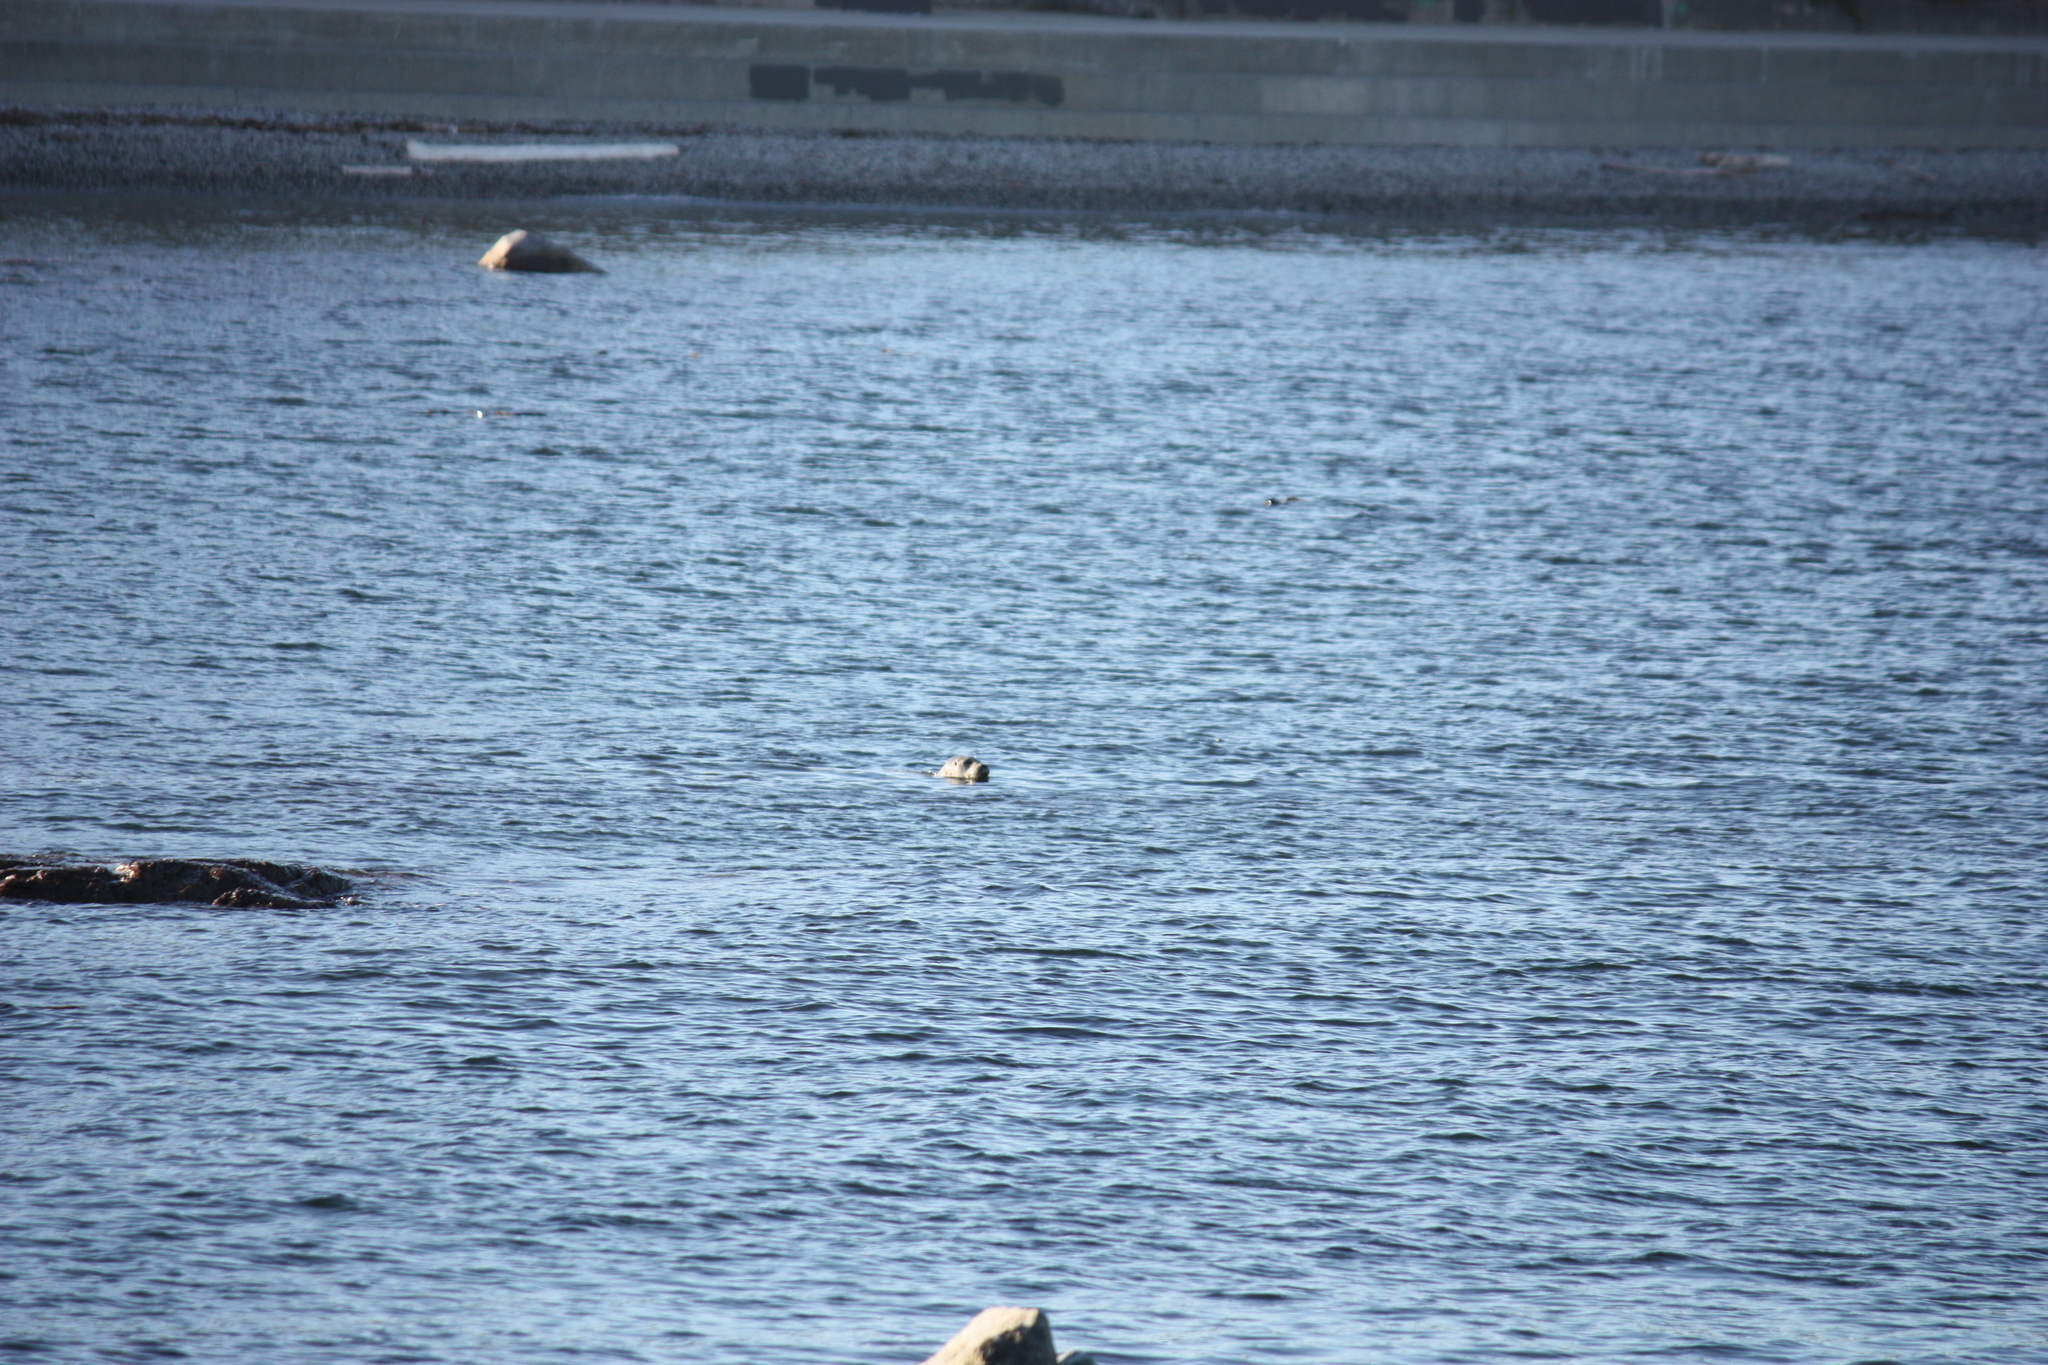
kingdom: Animalia
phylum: Chordata
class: Mammalia
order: Carnivora
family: Phocidae
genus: Phoca
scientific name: Phoca vitulina
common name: Harbor seal
